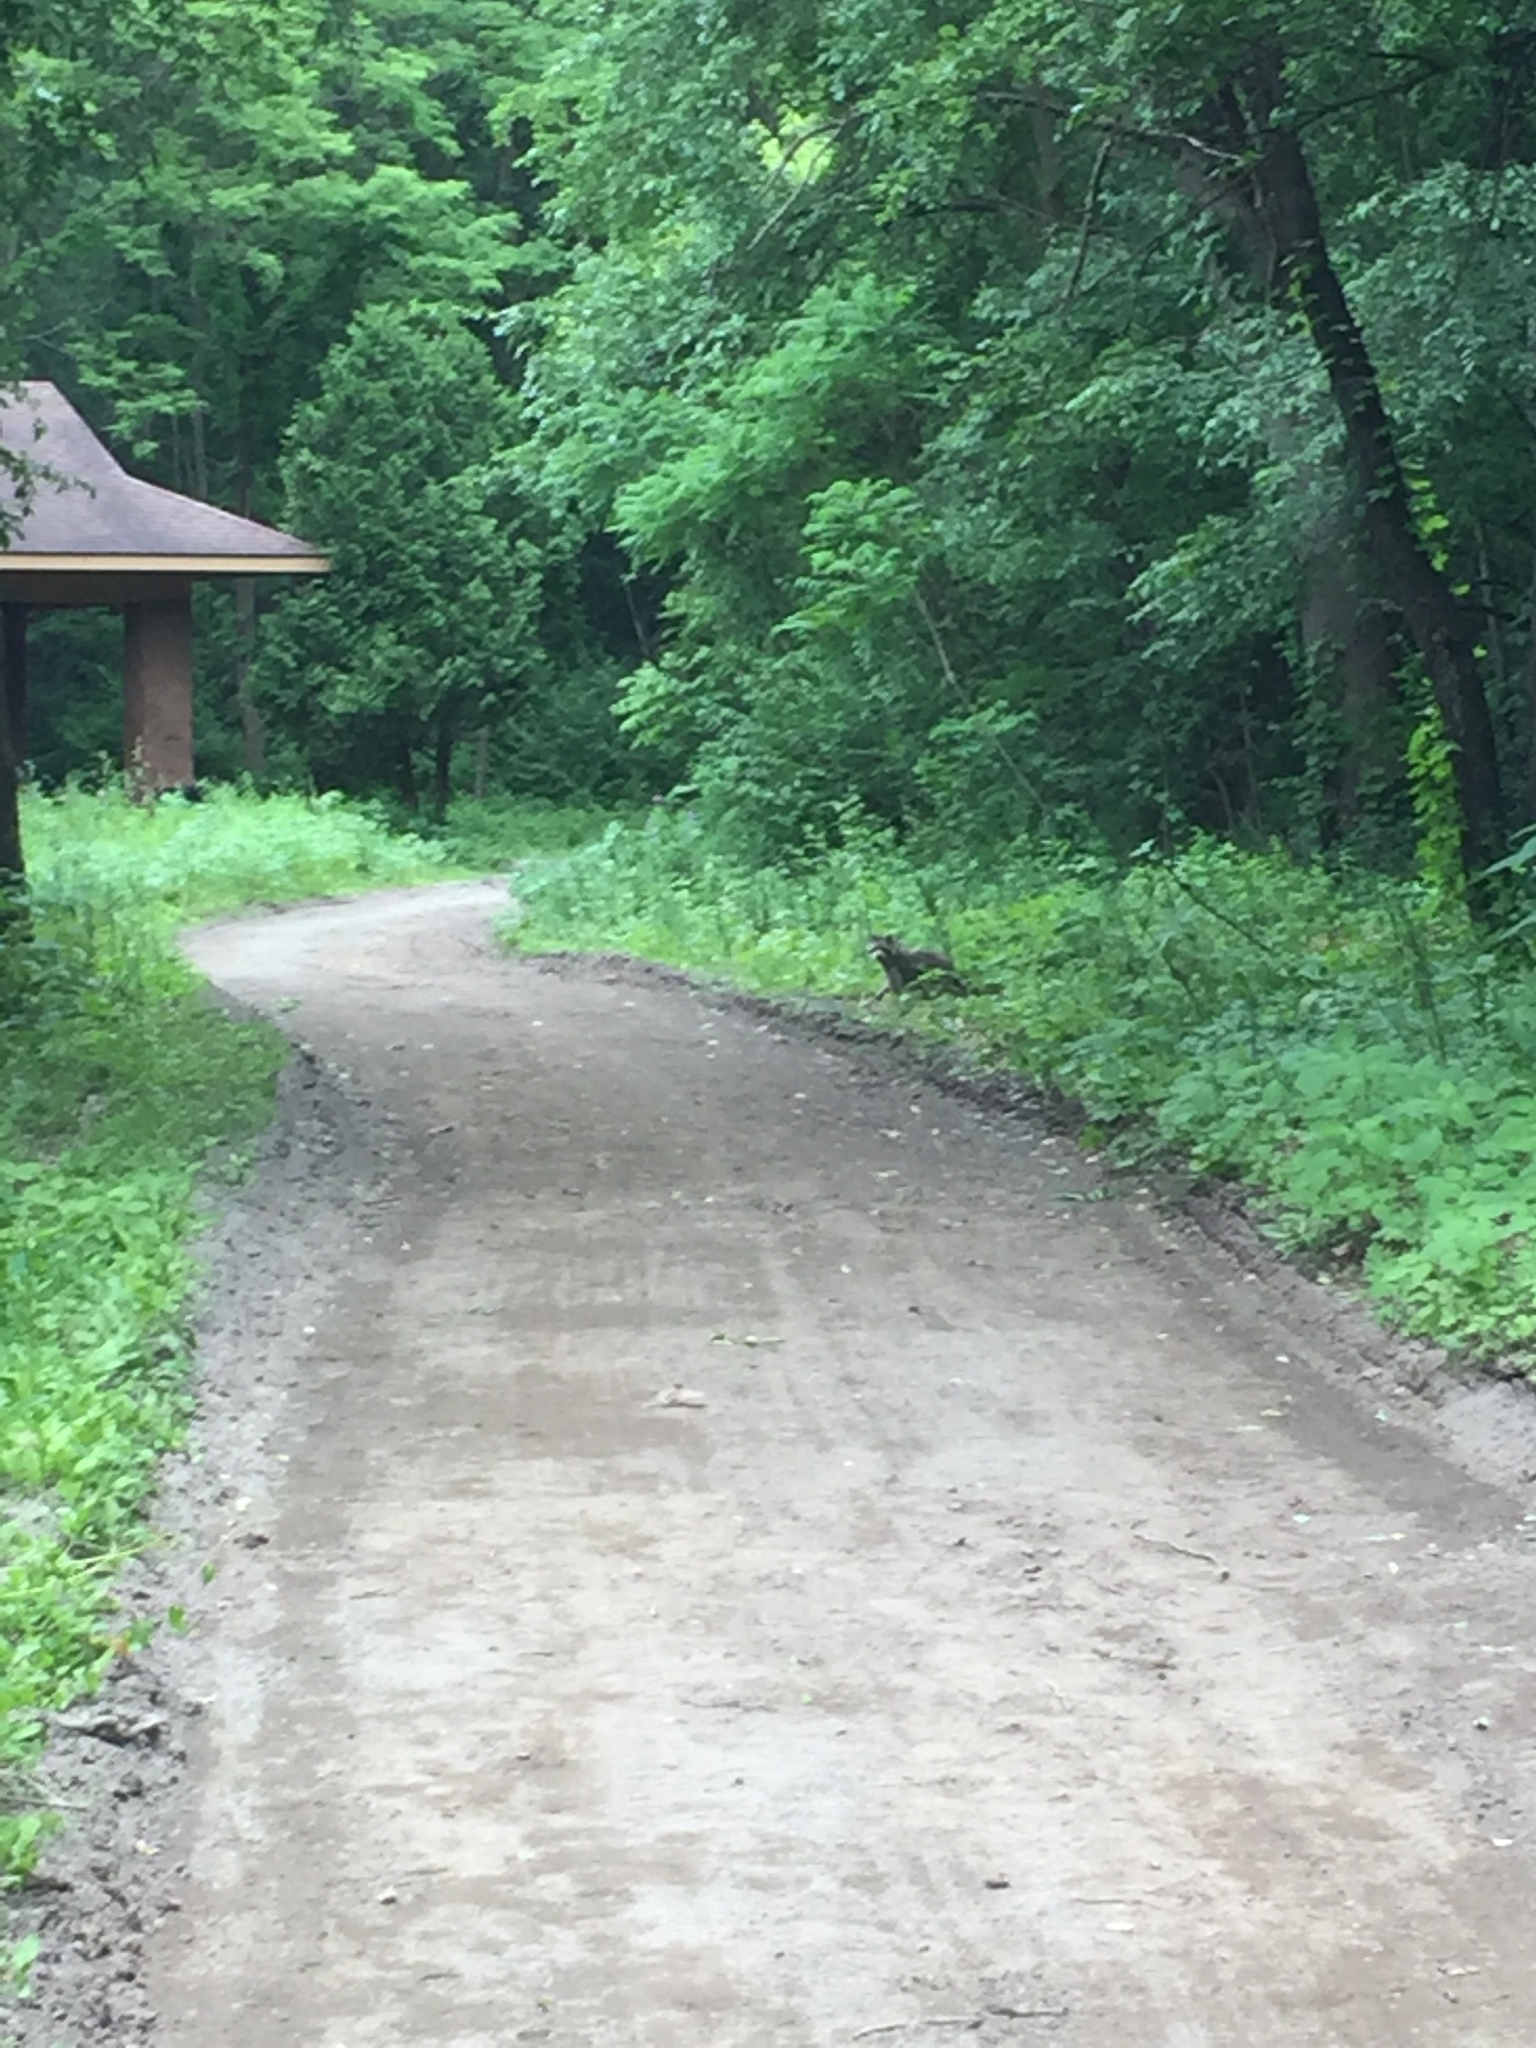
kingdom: Animalia
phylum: Chordata
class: Mammalia
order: Carnivora
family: Procyonidae
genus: Procyon
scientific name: Procyon lotor
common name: Raccoon
